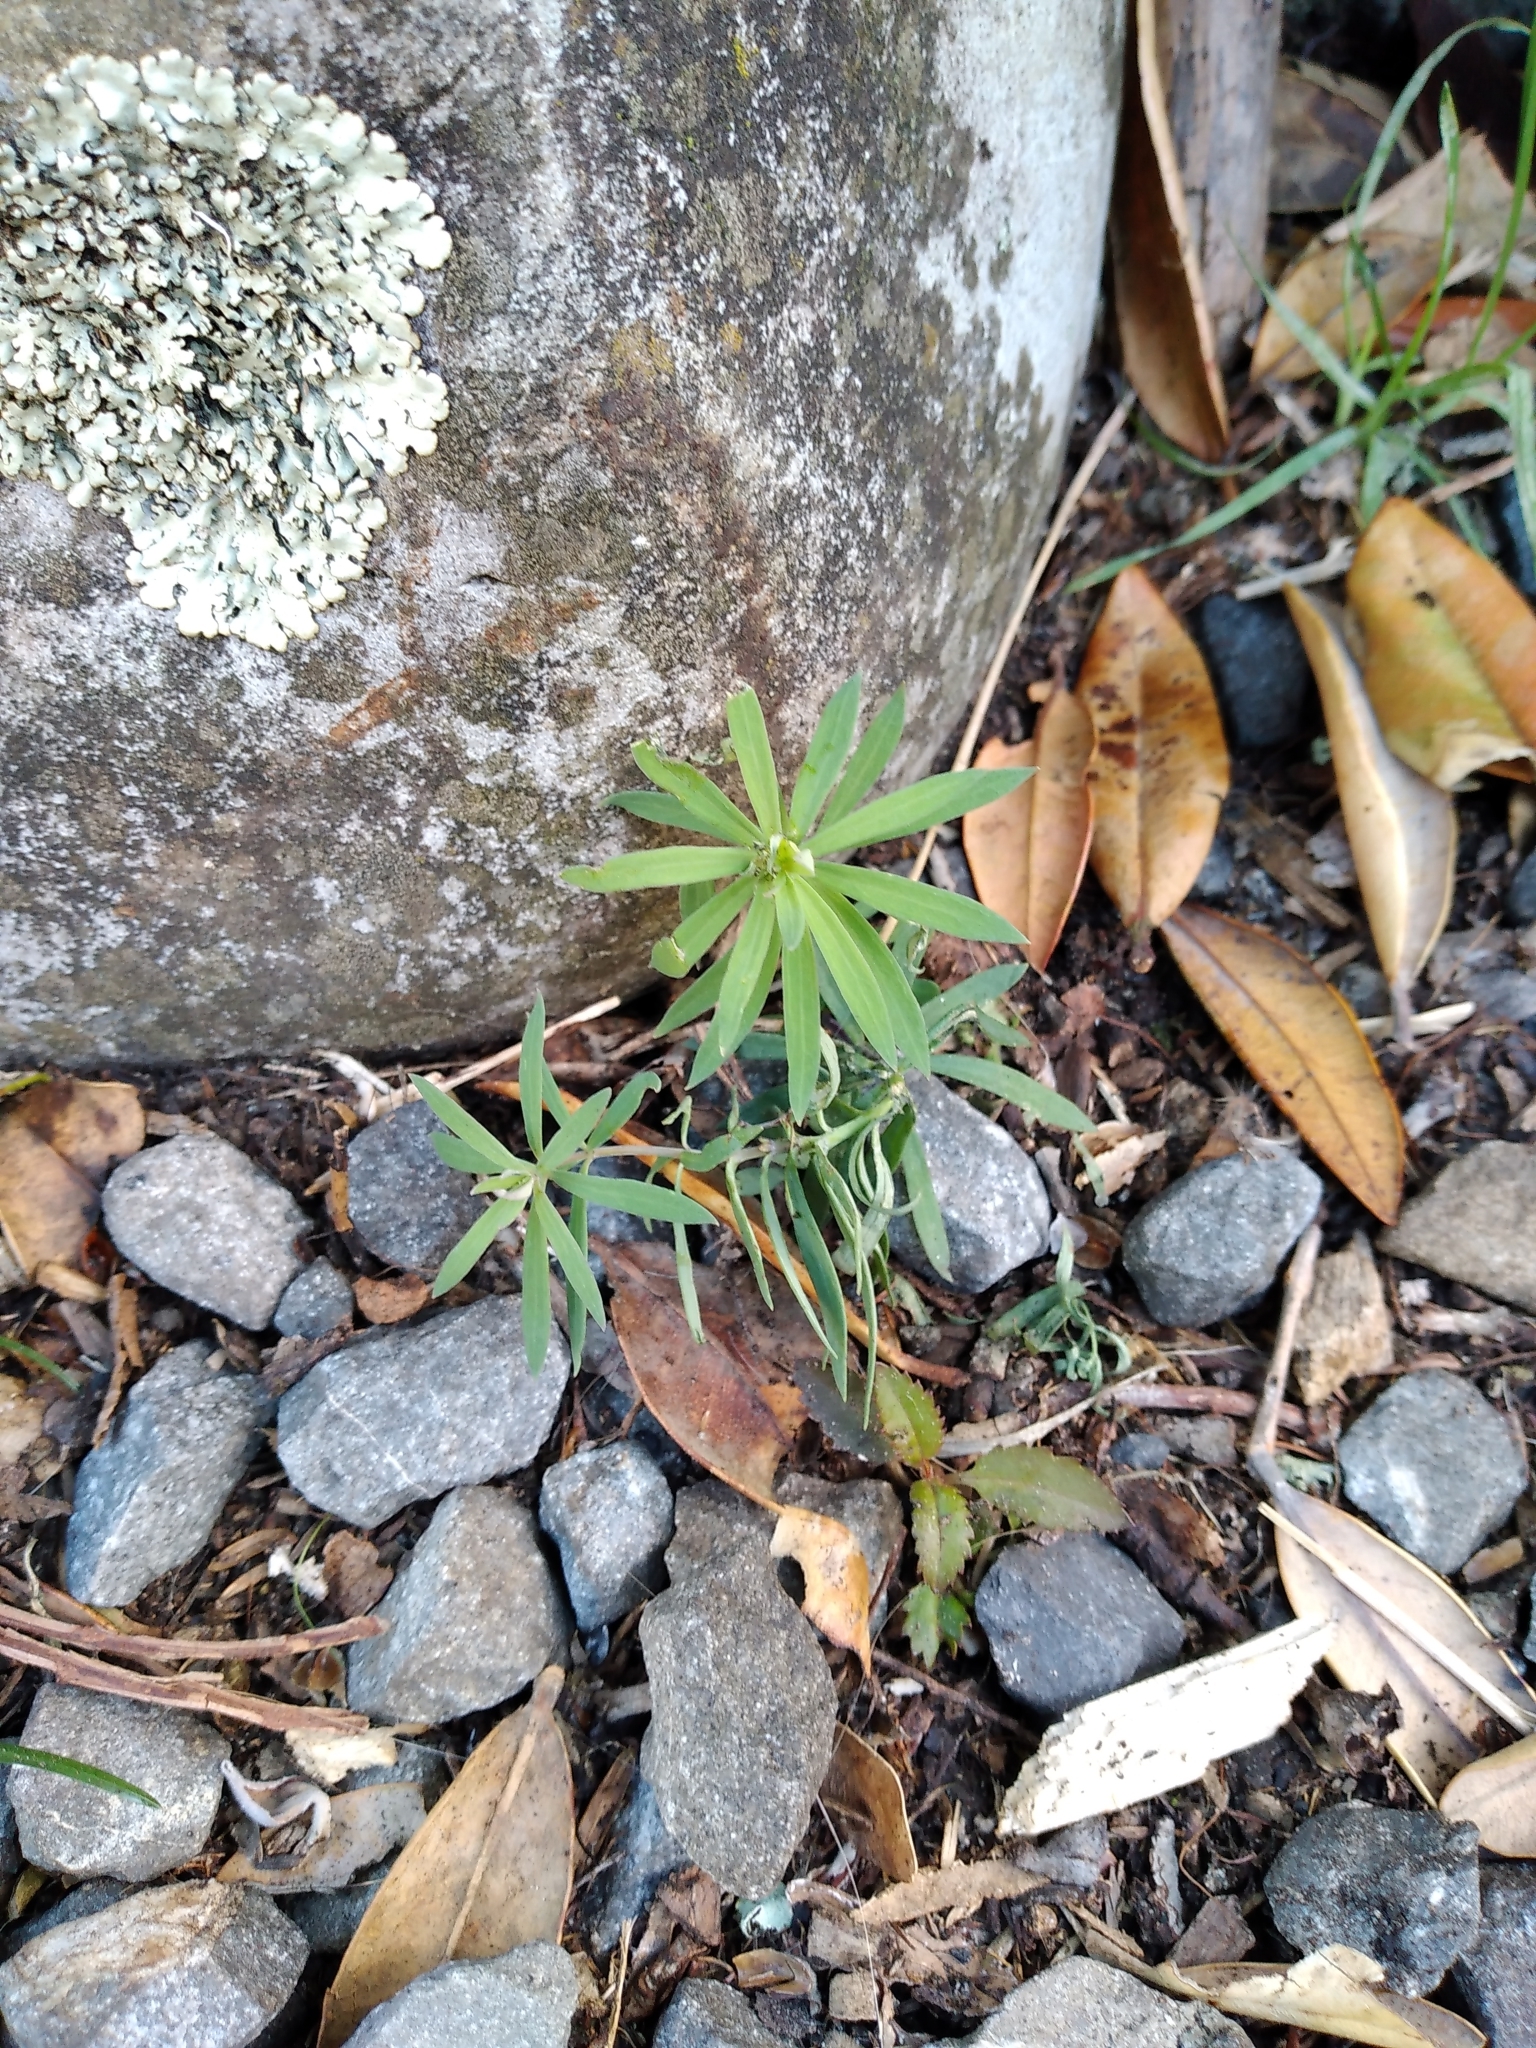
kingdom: Plantae
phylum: Tracheophyta
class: Magnoliopsida
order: Lamiales
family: Plantaginaceae
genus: Linaria
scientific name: Linaria purpurea
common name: Purple toadflax
